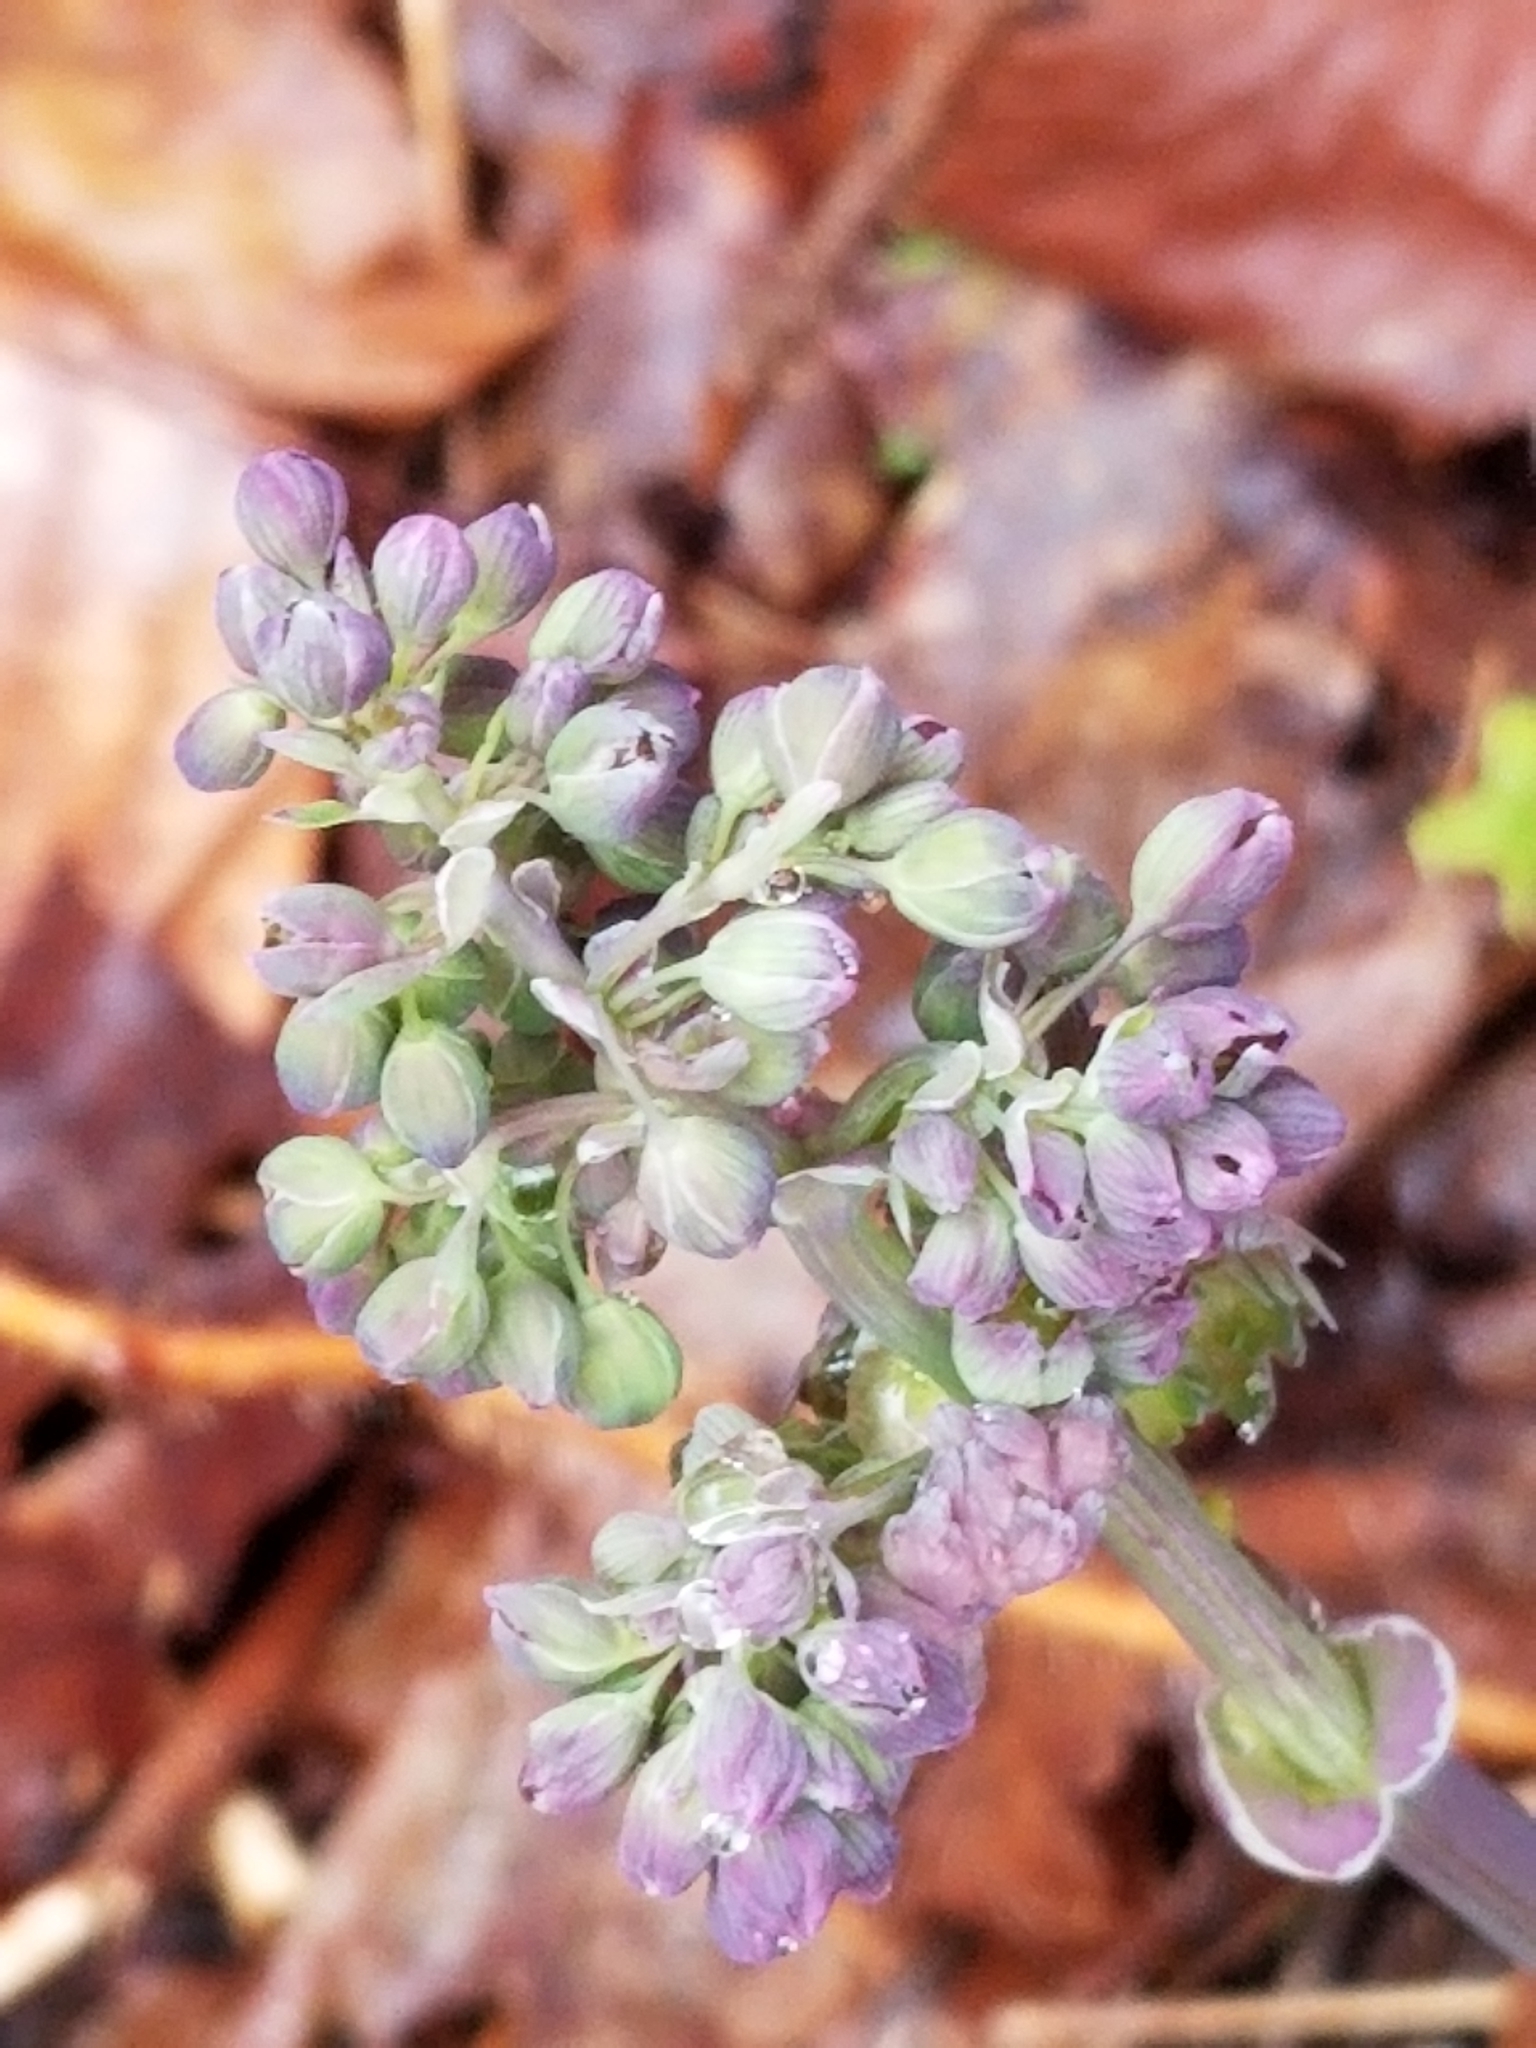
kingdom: Plantae
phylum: Tracheophyta
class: Magnoliopsida
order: Ranunculales
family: Ranunculaceae
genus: Thalictrum
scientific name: Thalictrum dioicum
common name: Early meadow-rue
